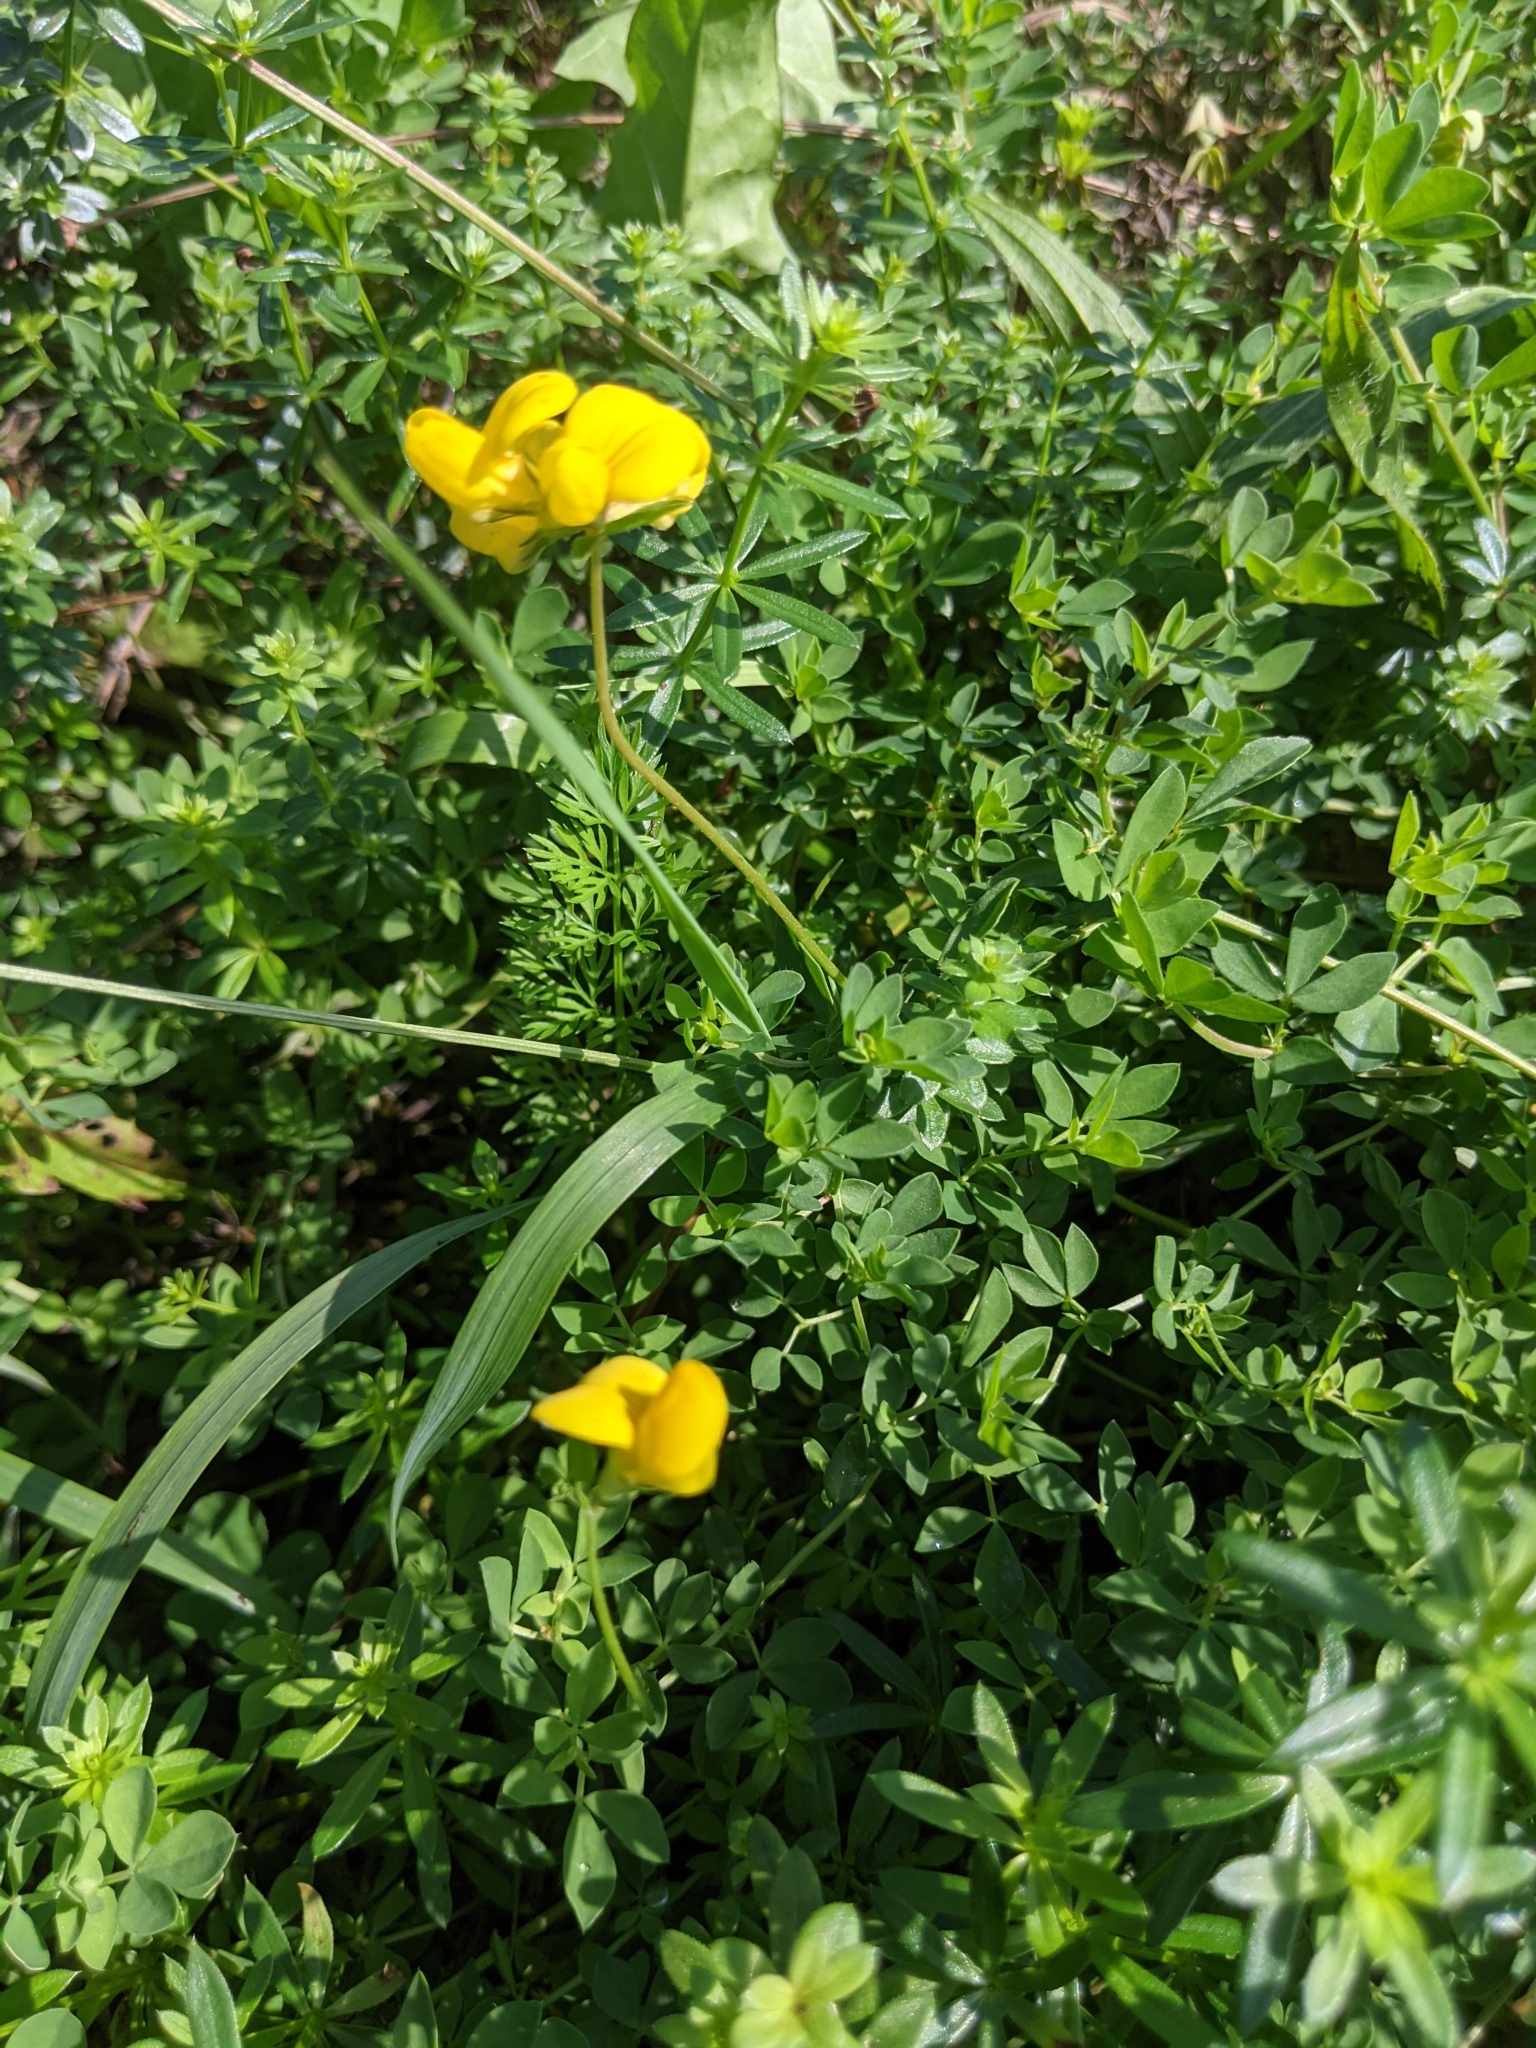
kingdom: Plantae
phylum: Tracheophyta
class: Magnoliopsida
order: Fabales
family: Fabaceae
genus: Lotus
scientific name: Lotus corniculatus
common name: Common bird's-foot-trefoil
